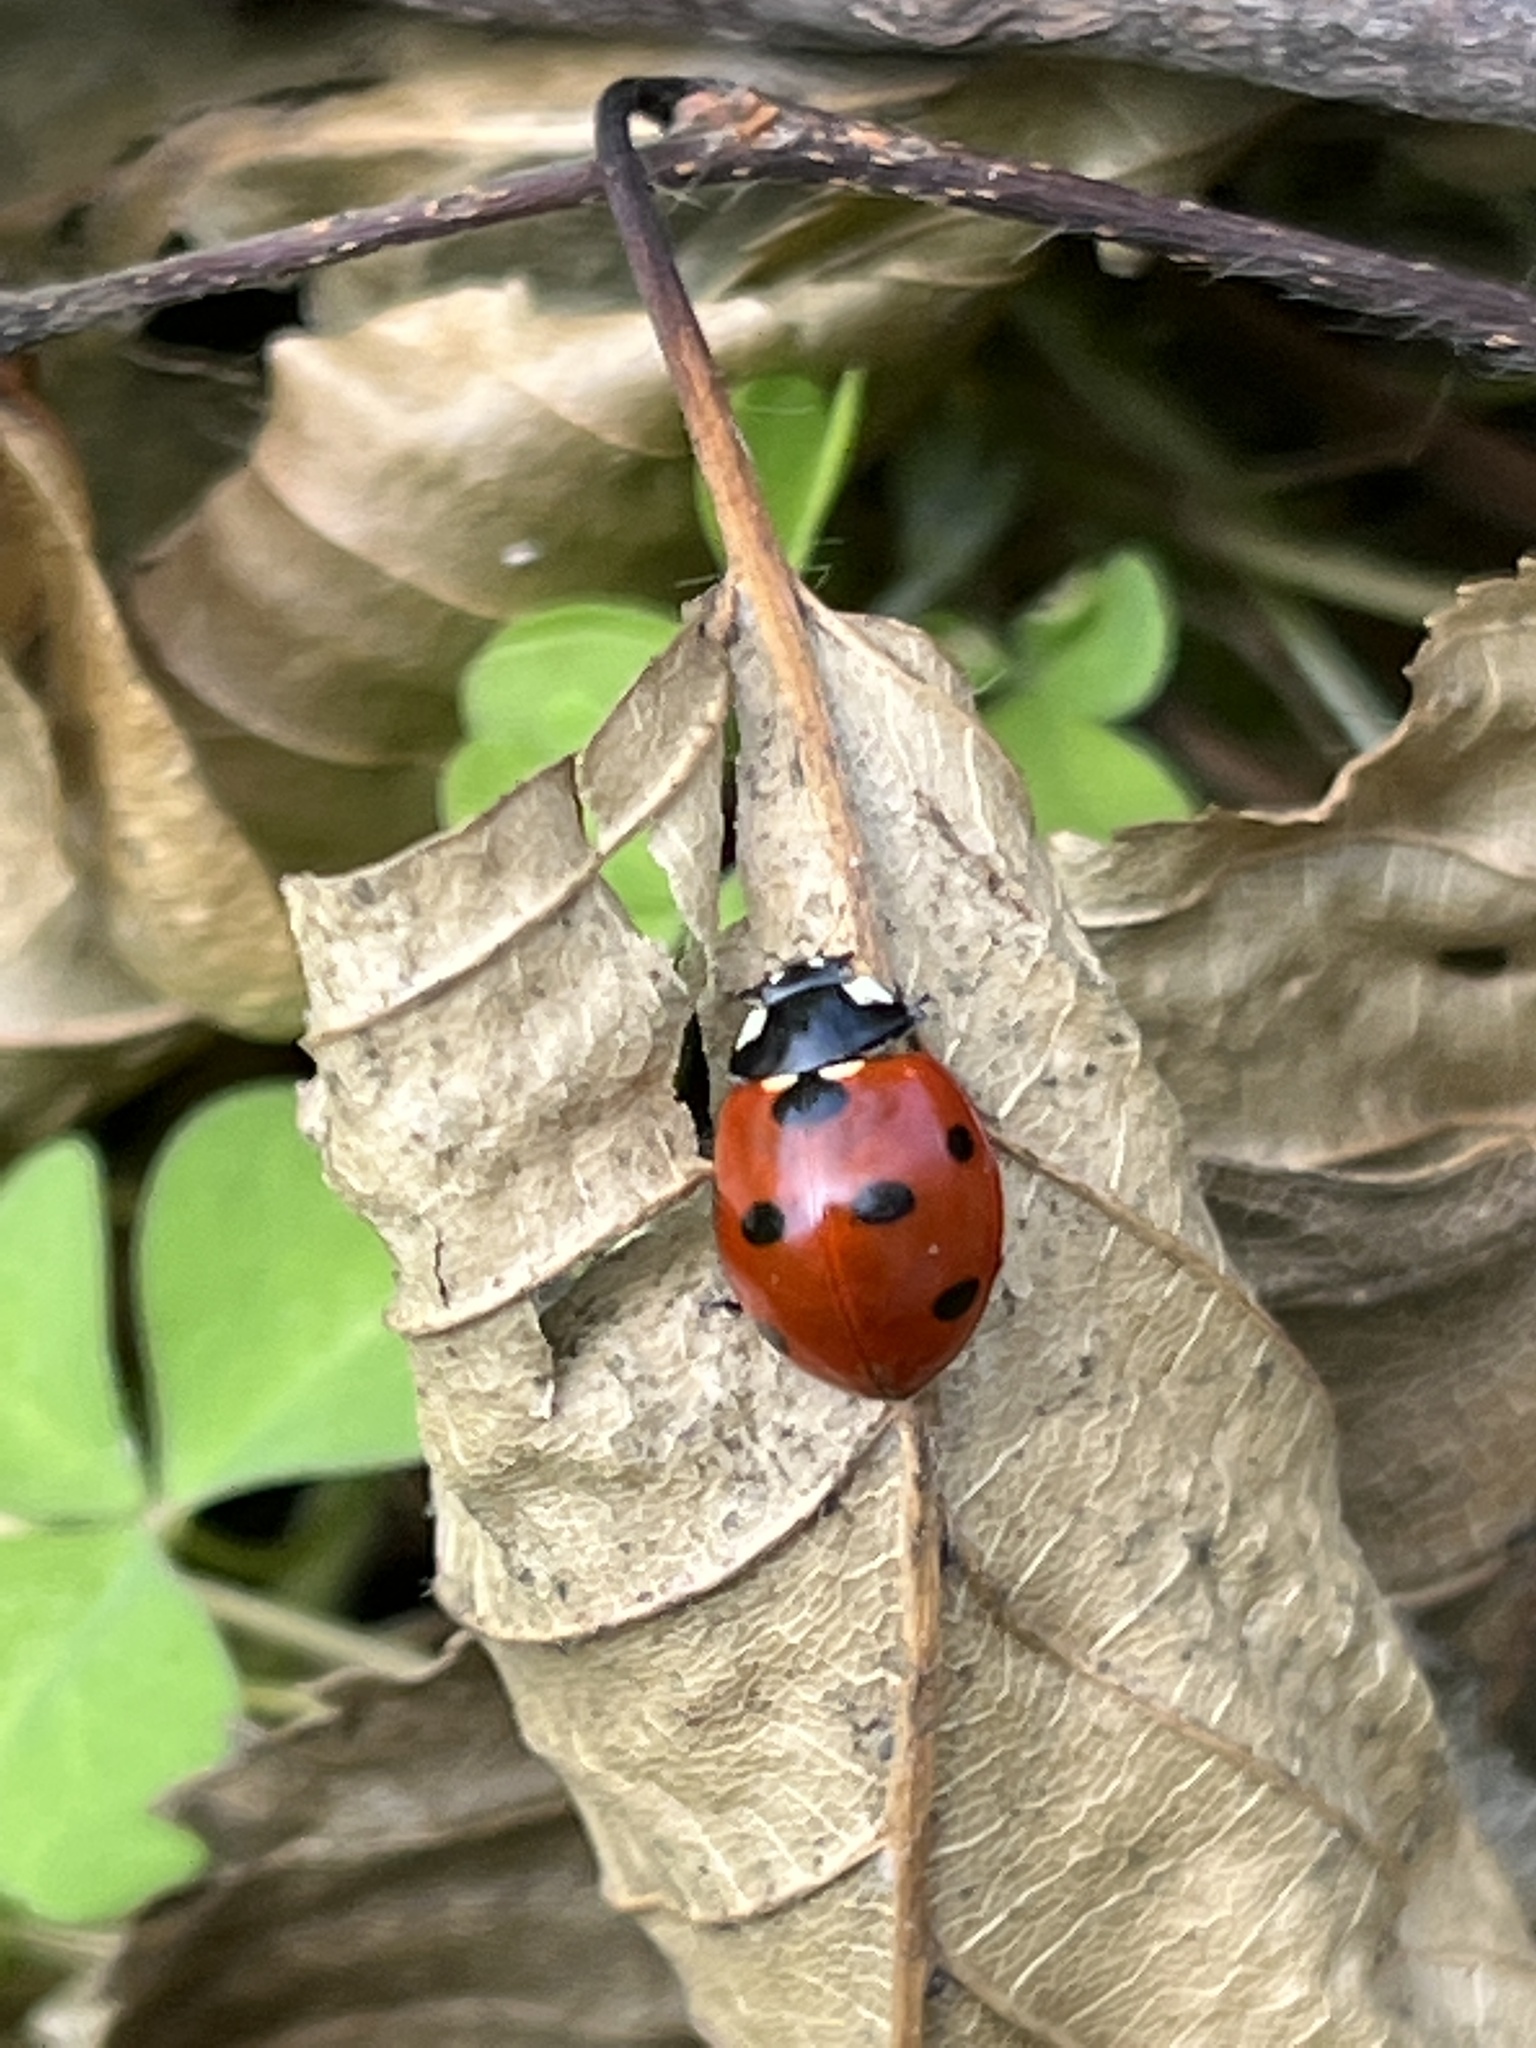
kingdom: Animalia
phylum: Arthropoda
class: Insecta
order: Coleoptera
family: Coccinellidae
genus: Coccinella
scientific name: Coccinella septempunctata
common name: Sevenspotted lady beetle
